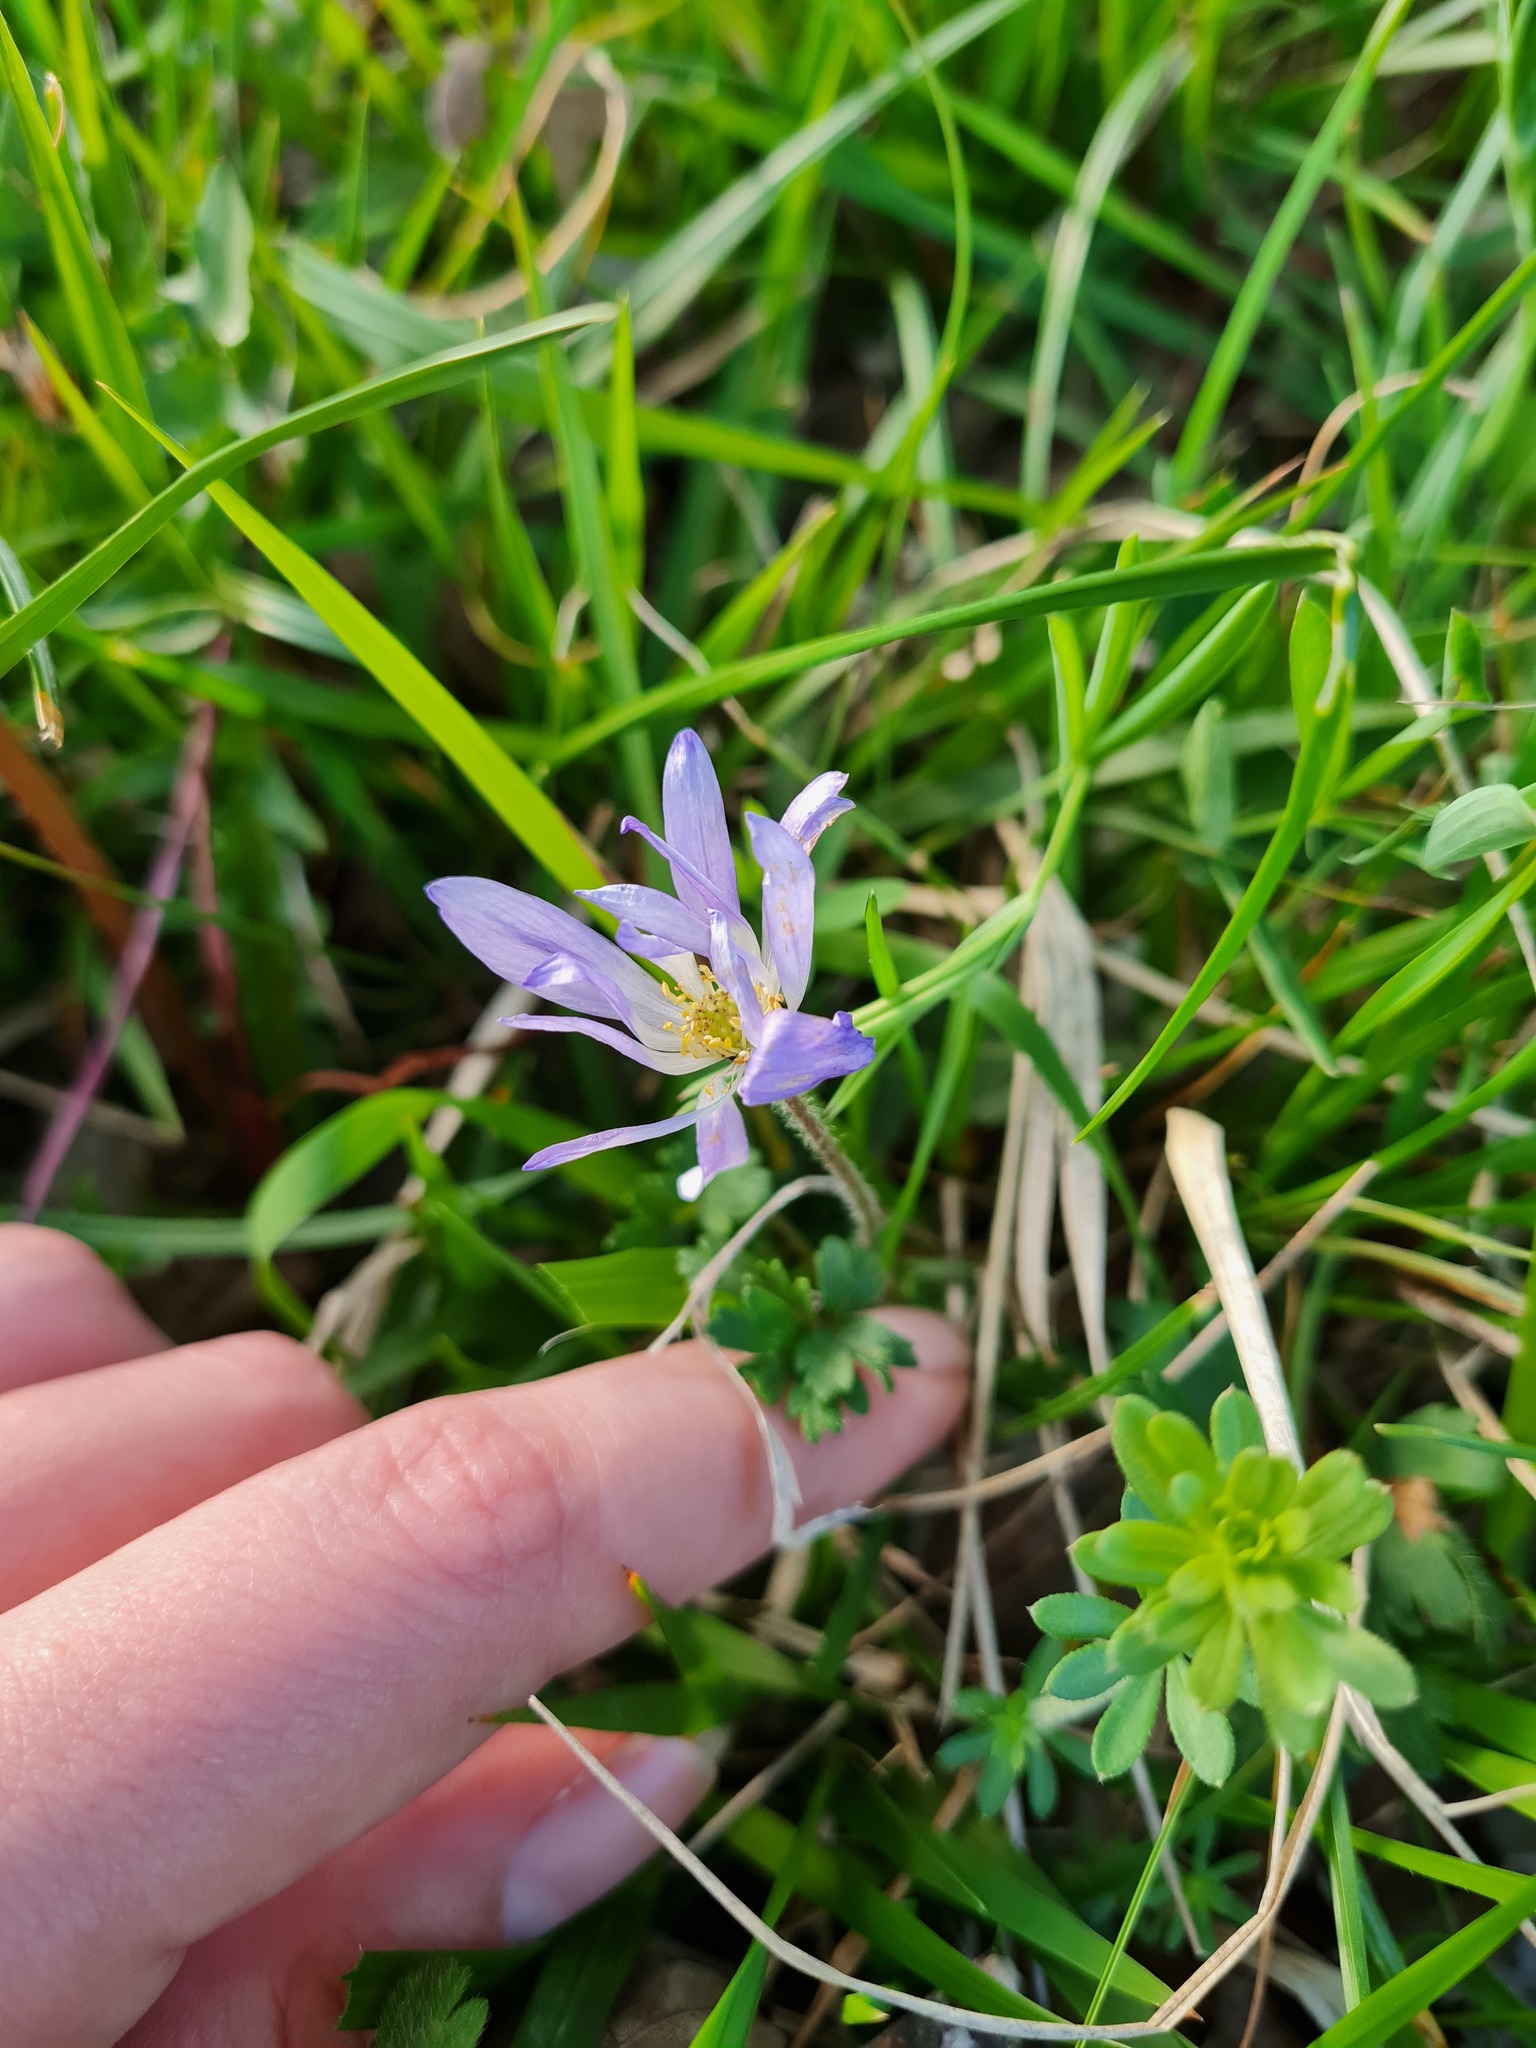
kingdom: Plantae
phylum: Tracheophyta
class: Magnoliopsida
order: Ranunculales
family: Ranunculaceae
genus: Anemone
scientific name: Anemone blanda
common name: Balkan anemone
